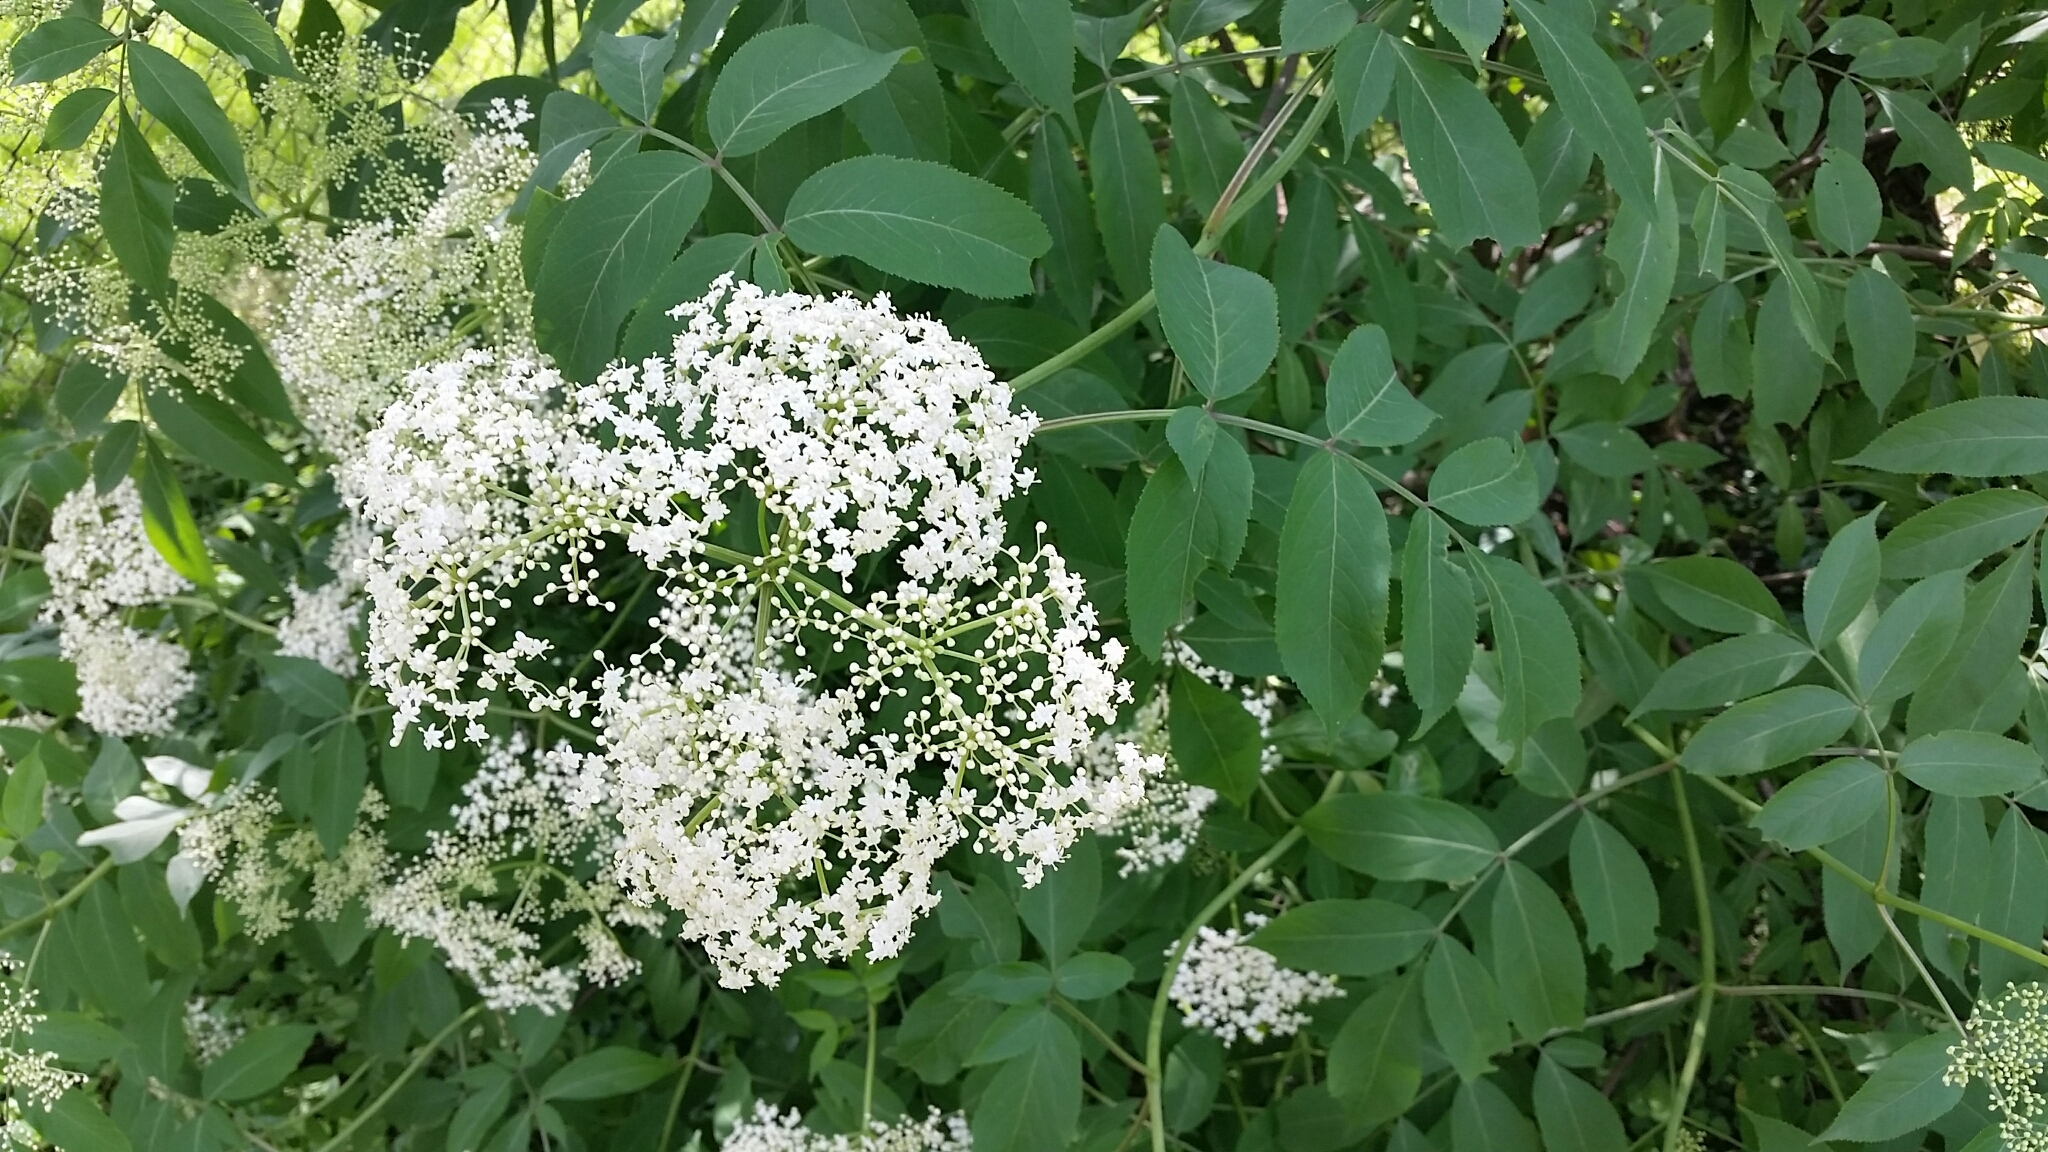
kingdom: Plantae
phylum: Tracheophyta
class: Magnoliopsida
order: Dipsacales
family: Viburnaceae
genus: Sambucus
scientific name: Sambucus canadensis
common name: American elder
